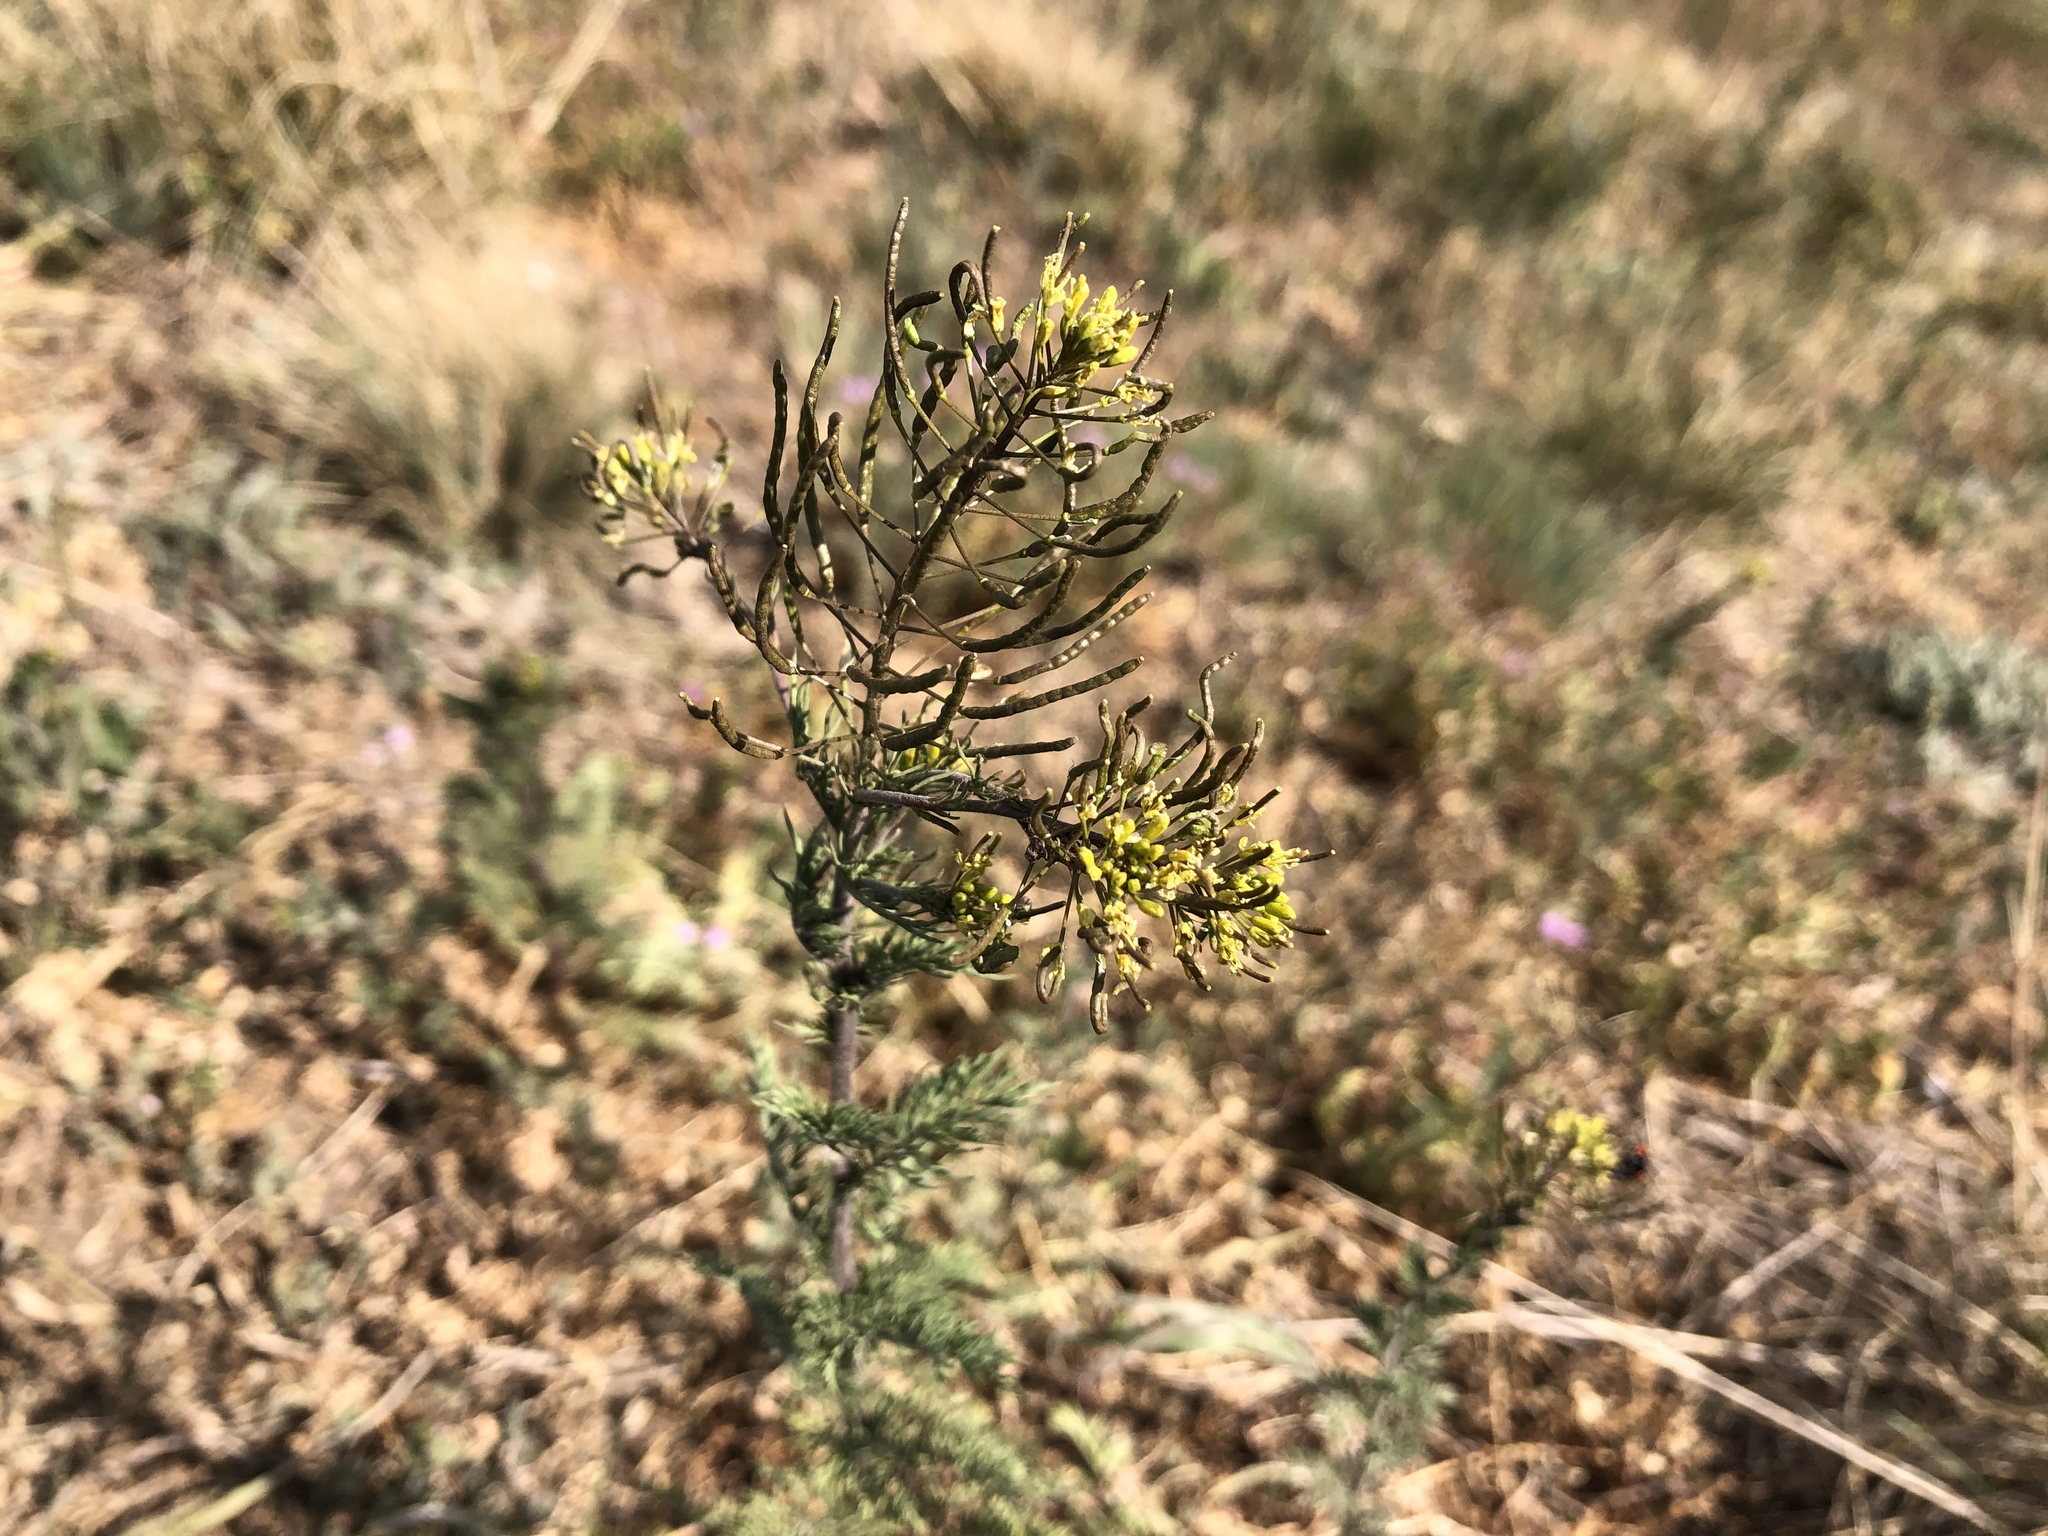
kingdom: Plantae
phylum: Tracheophyta
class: Magnoliopsida
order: Brassicales
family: Brassicaceae
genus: Descurainia
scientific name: Descurainia sophia
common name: Flixweed
